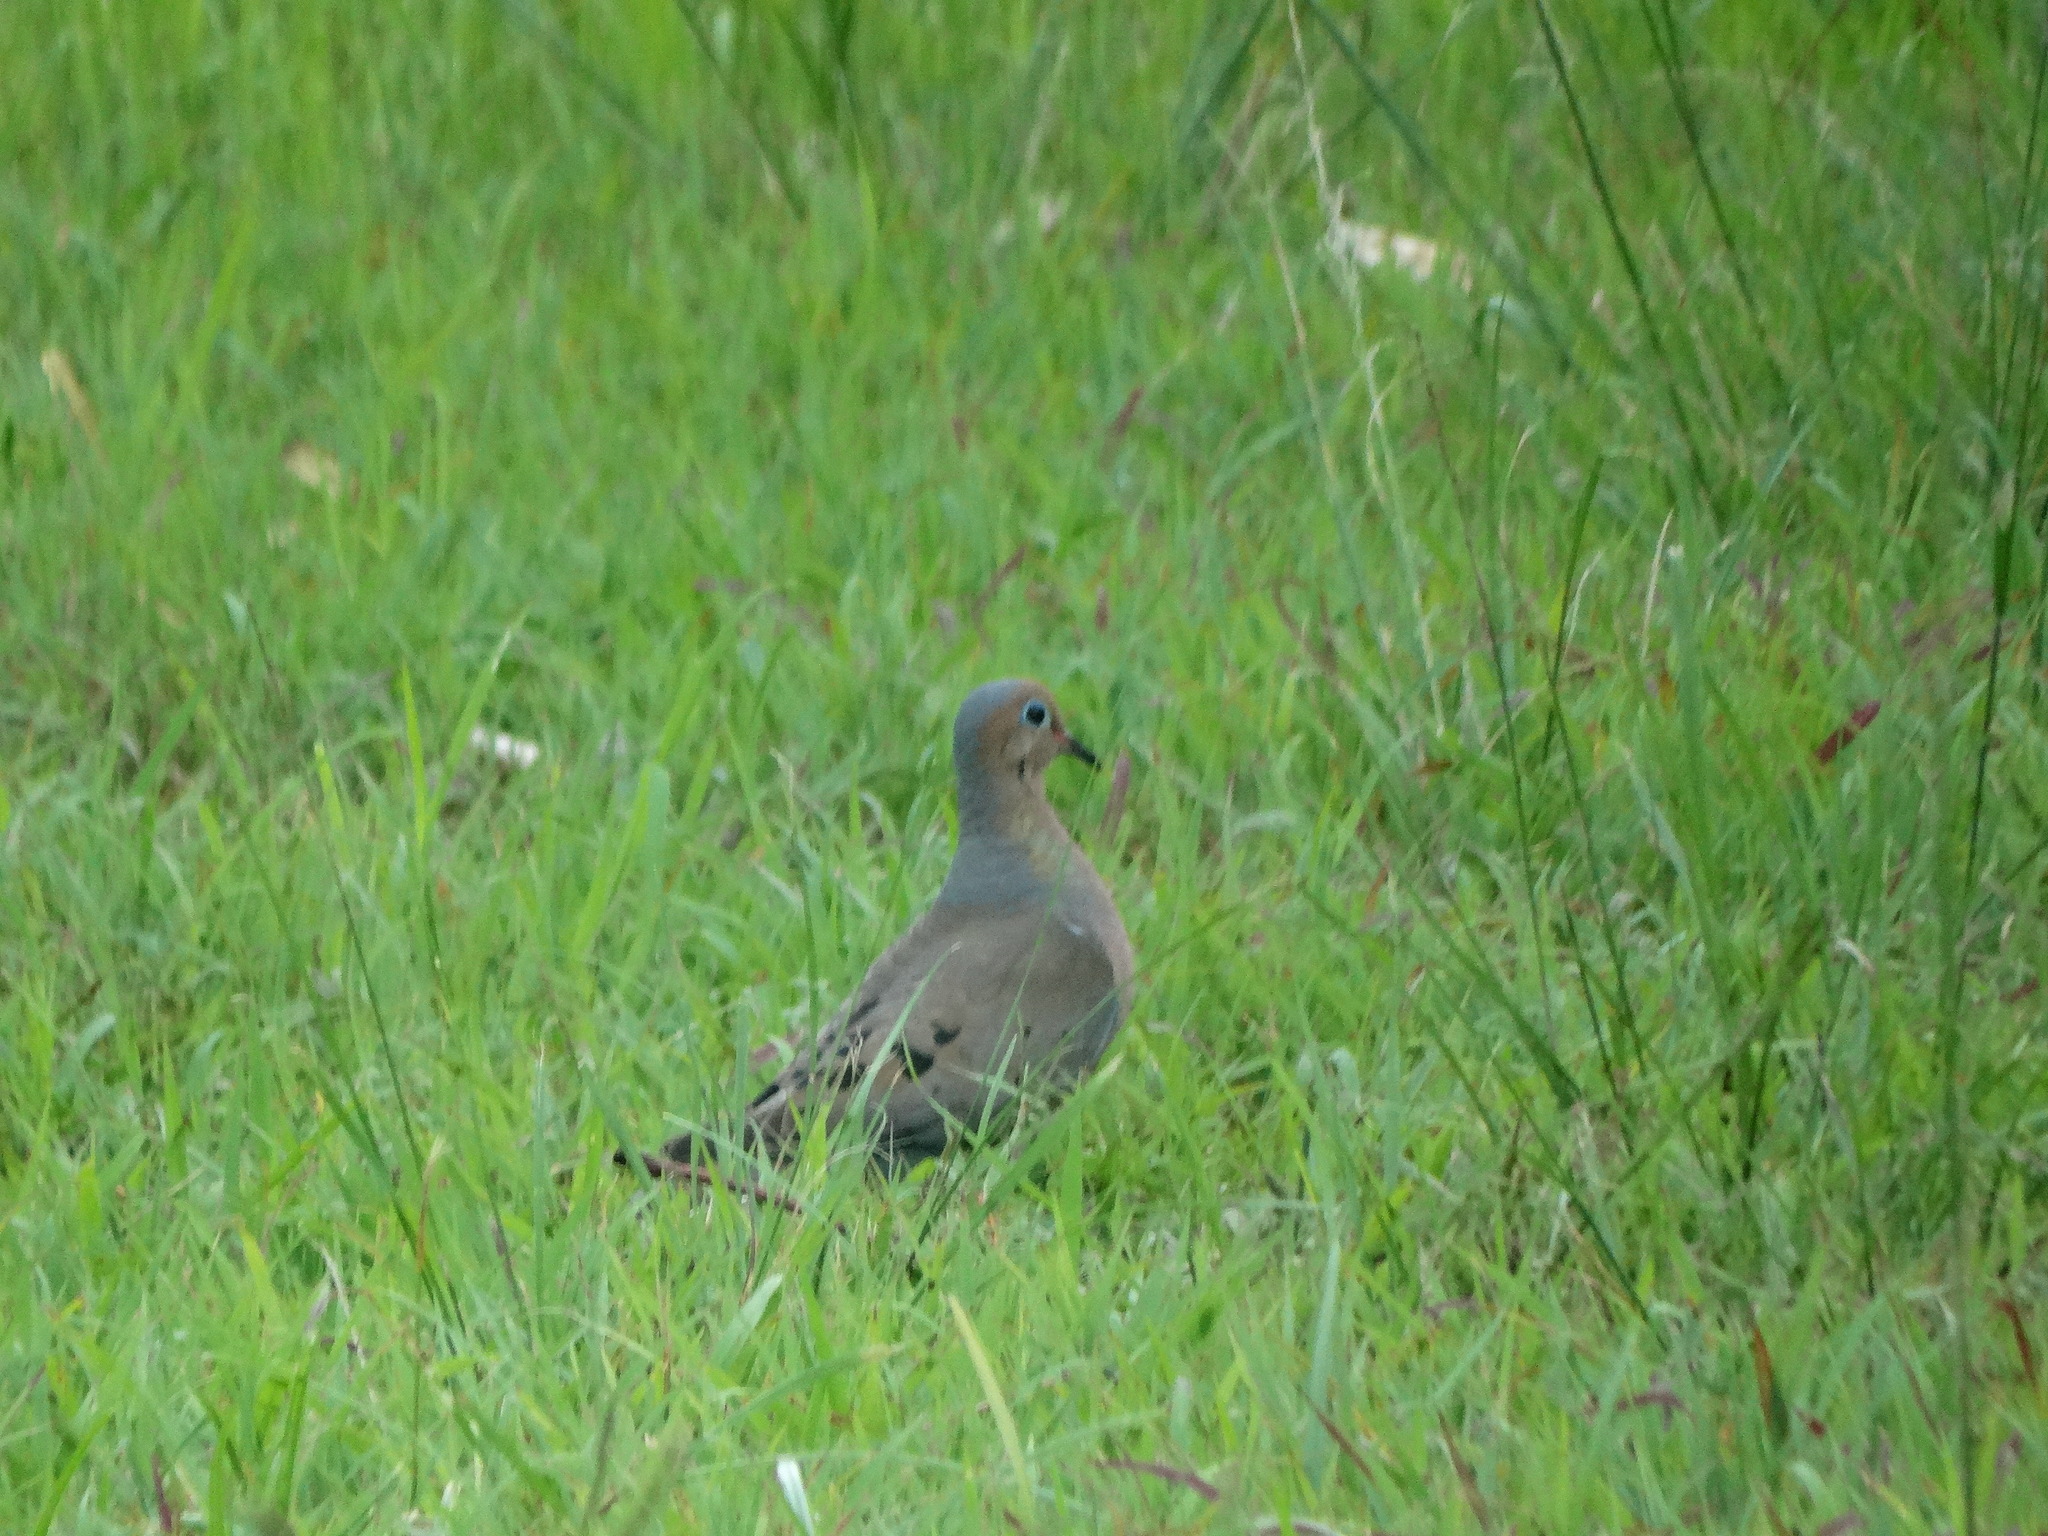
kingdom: Animalia
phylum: Chordata
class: Aves
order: Columbiformes
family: Columbidae
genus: Zenaida
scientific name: Zenaida macroura
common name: Mourning dove
